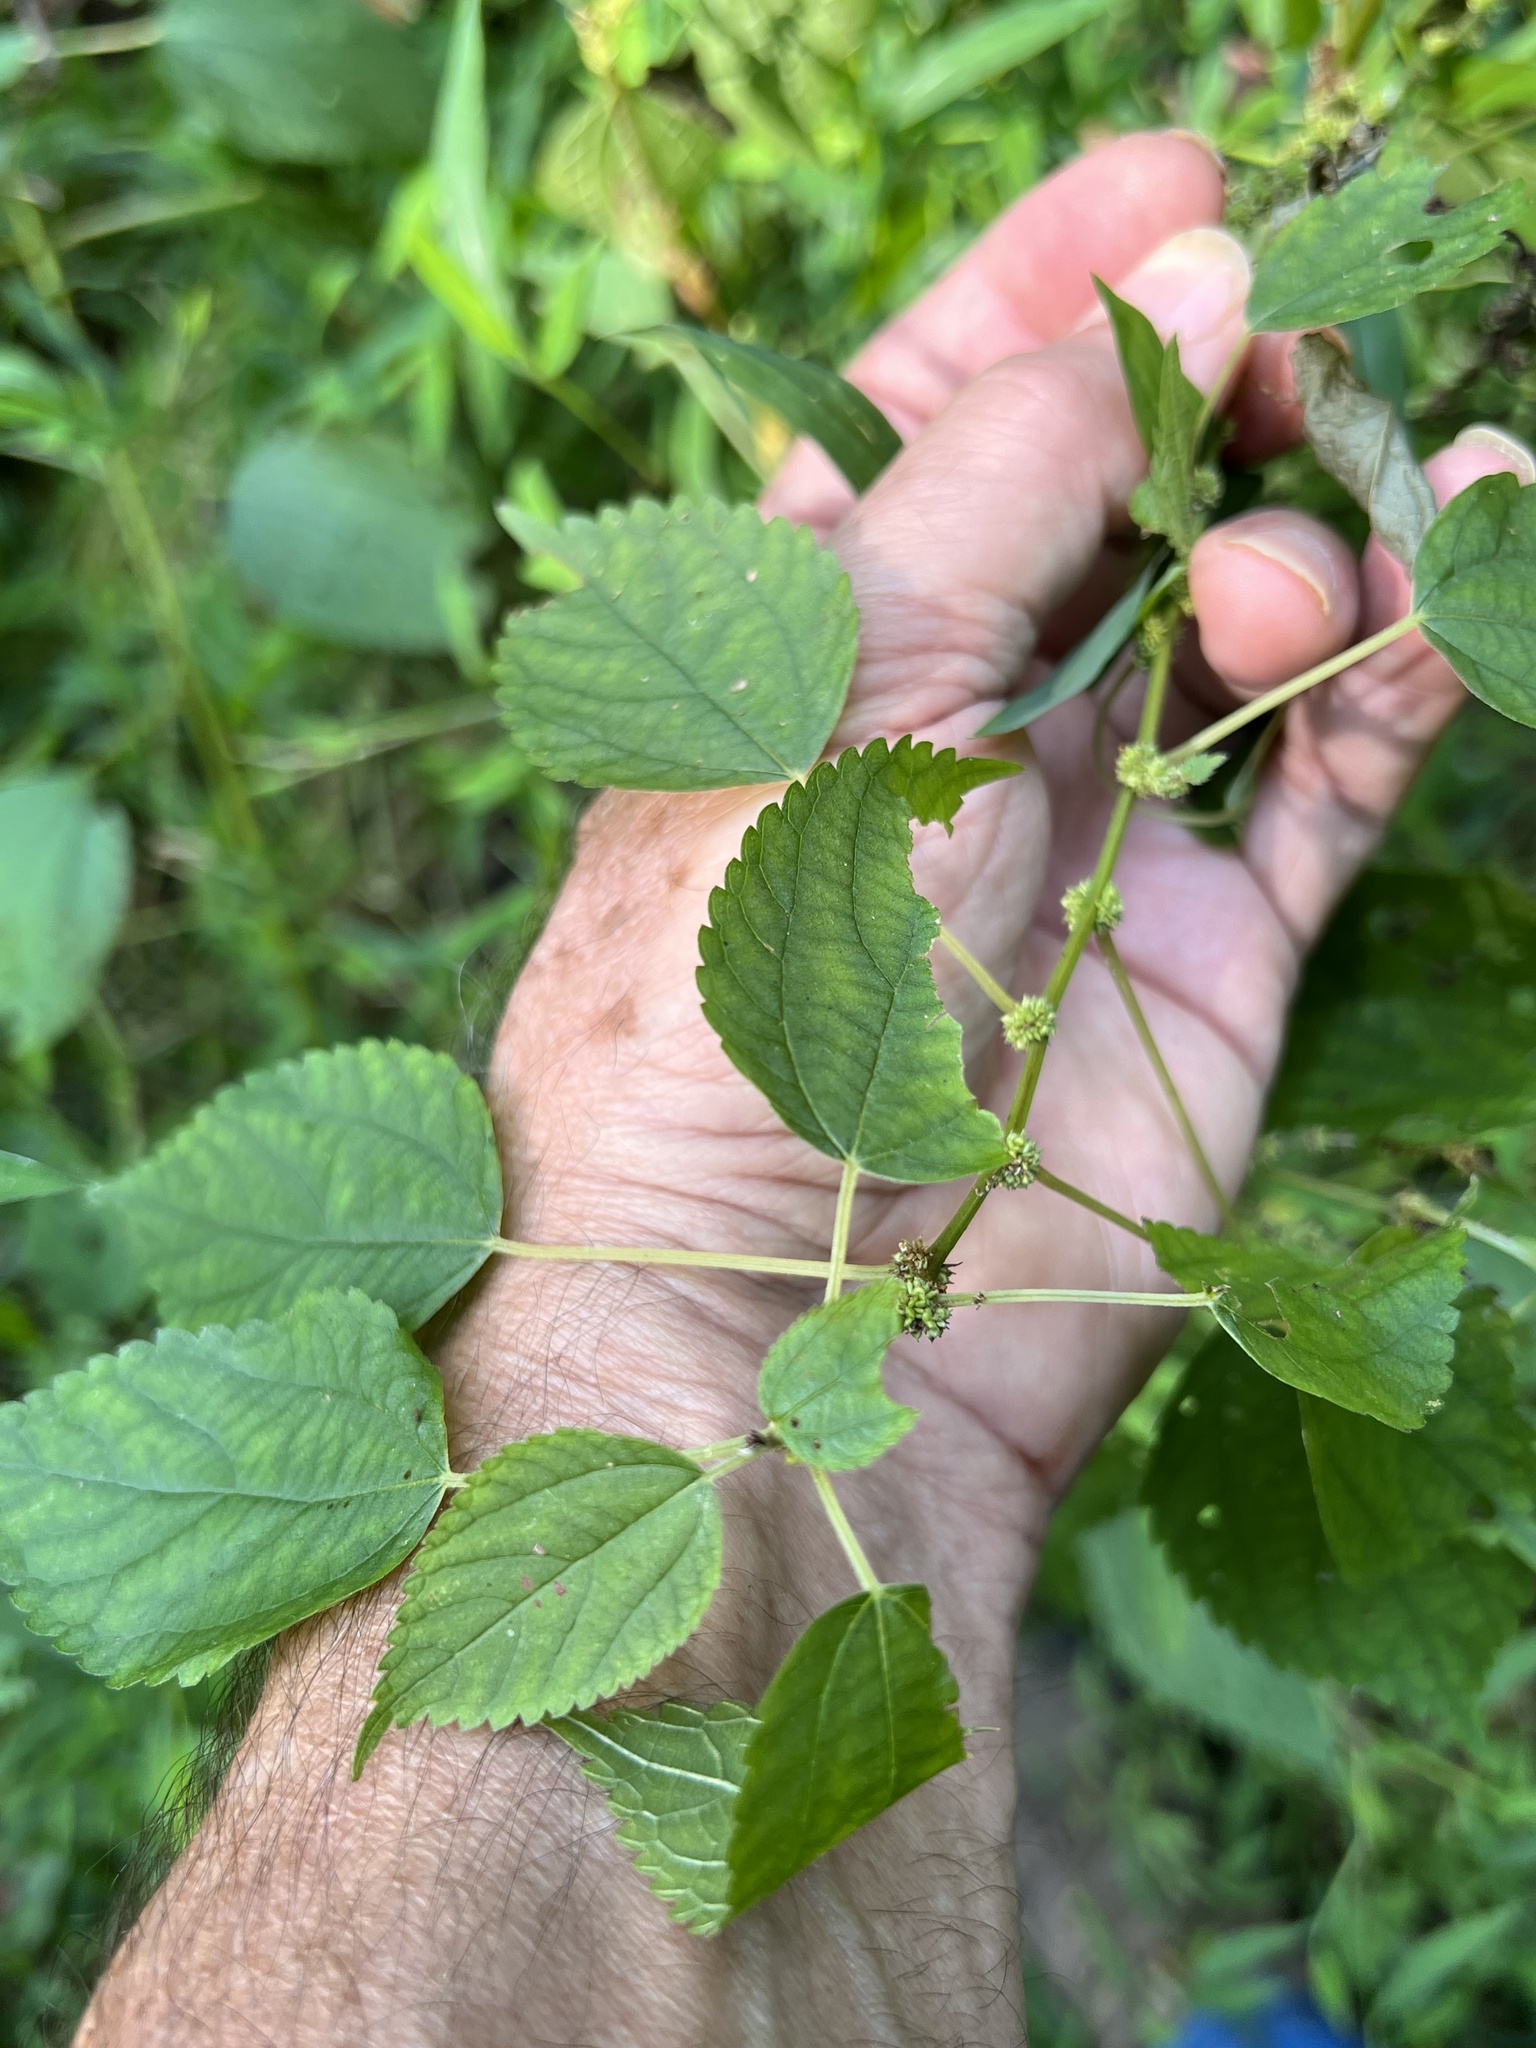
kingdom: Animalia
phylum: Arthropoda
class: Insecta
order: Diptera
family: Cecidomyiidae
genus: Neolasioptera
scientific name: Neolasioptera boehmeriae
